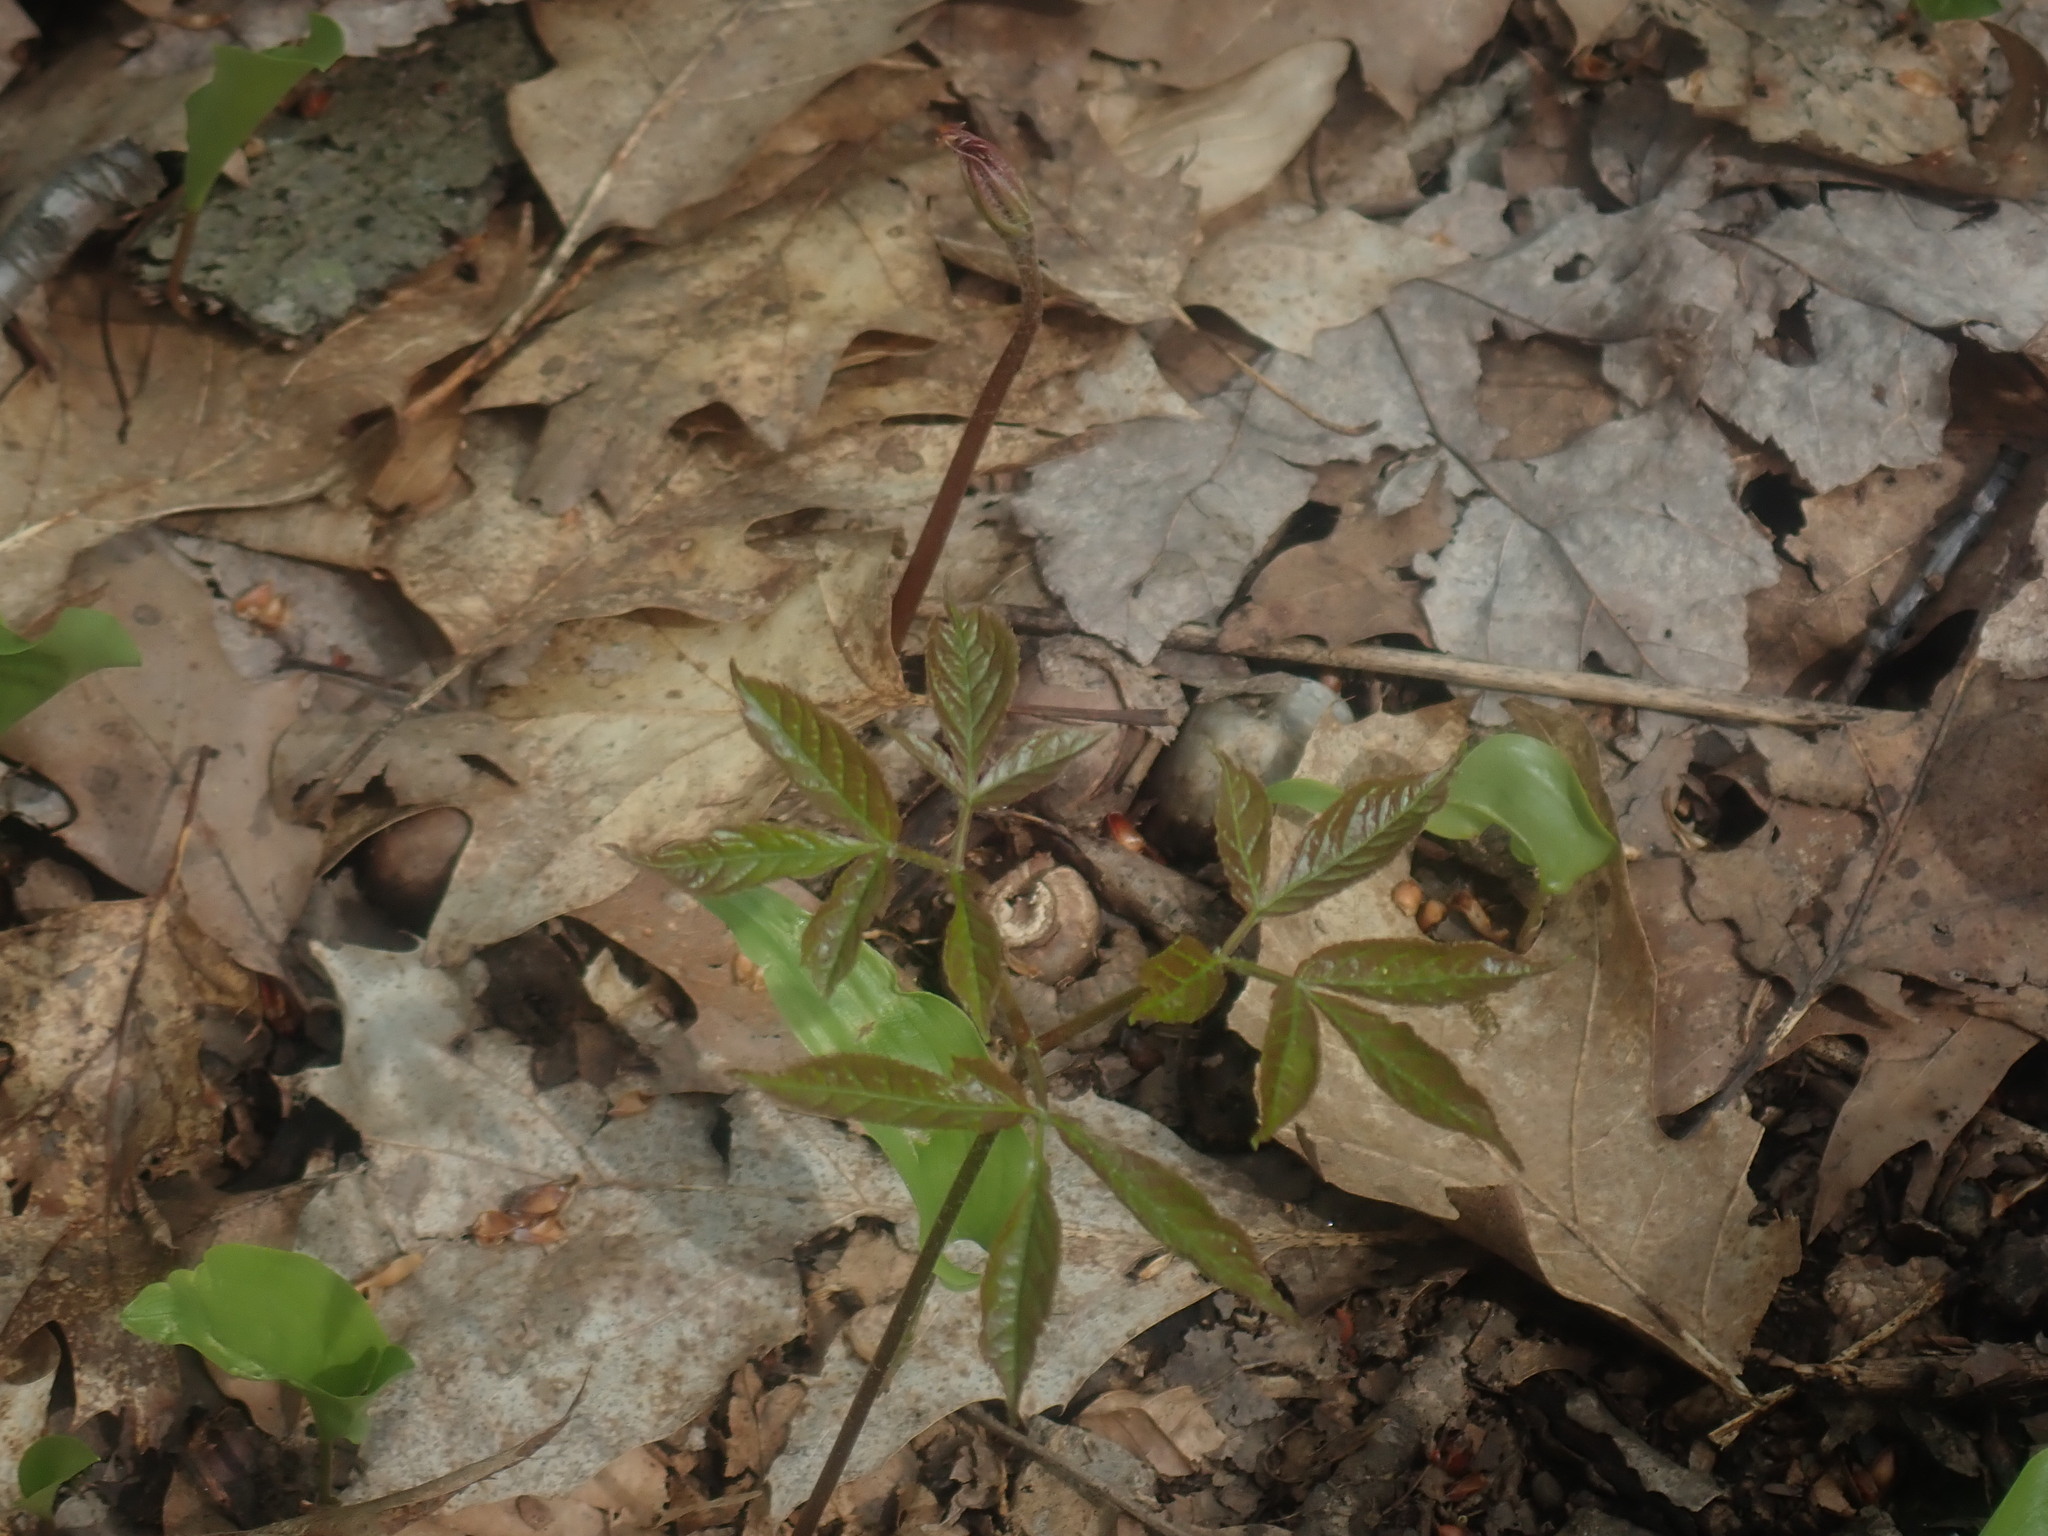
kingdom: Plantae
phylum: Tracheophyta
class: Magnoliopsida
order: Apiales
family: Araliaceae
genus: Aralia
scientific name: Aralia nudicaulis
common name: Wild sarsaparilla
